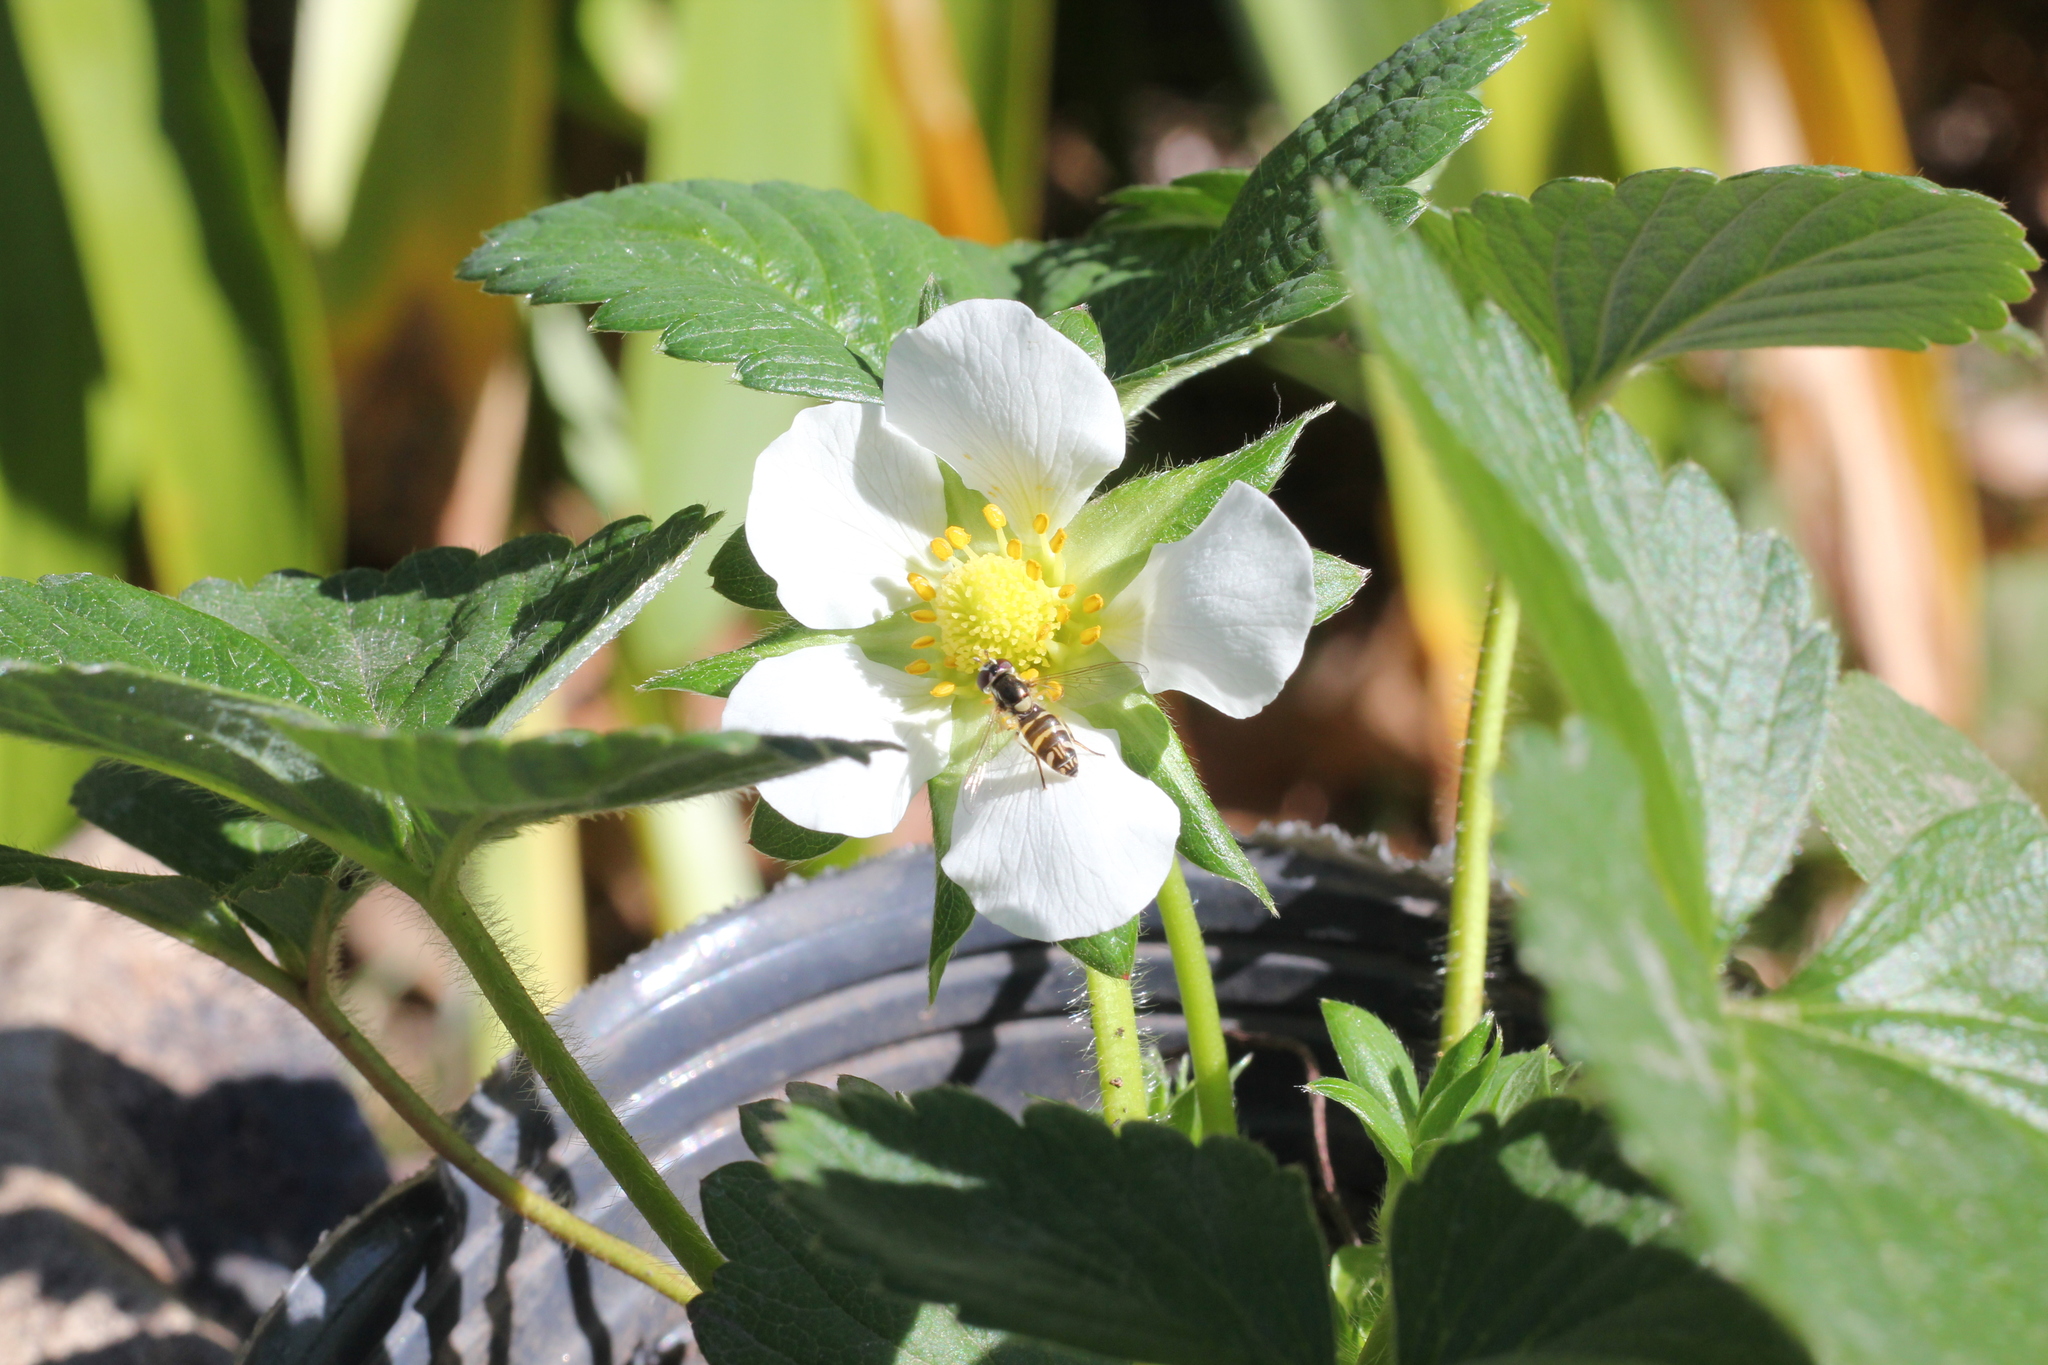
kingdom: Animalia
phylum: Arthropoda
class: Insecta
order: Diptera
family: Syrphidae
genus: Allograpta
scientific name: Allograpta
